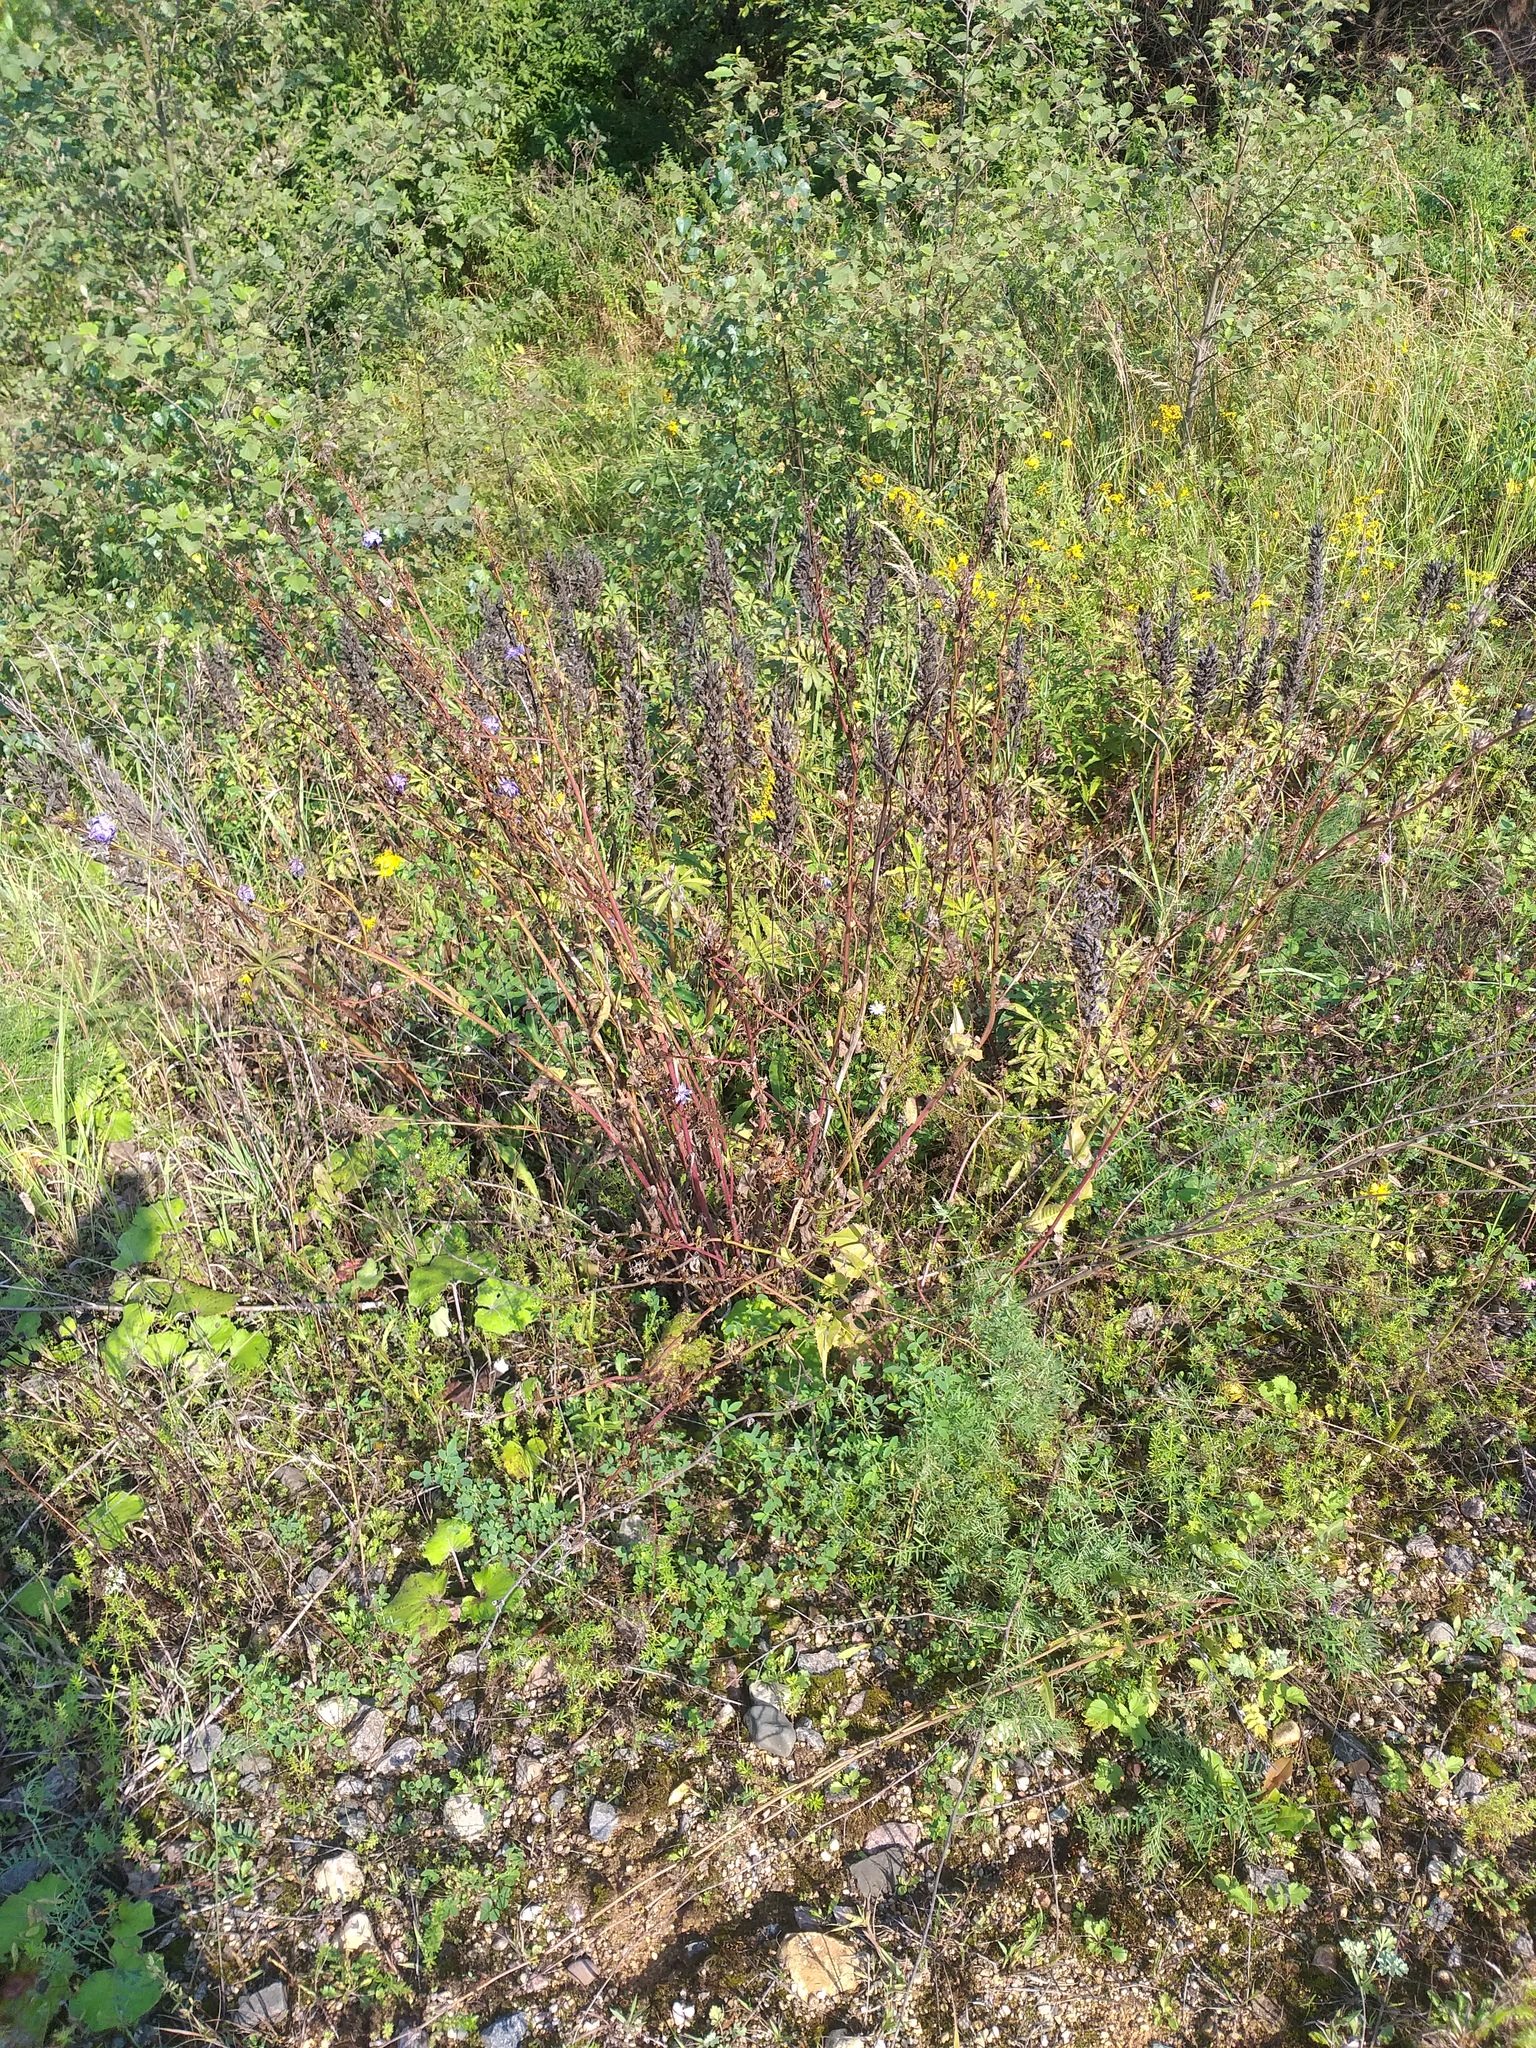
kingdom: Plantae
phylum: Tracheophyta
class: Magnoliopsida
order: Asterales
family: Asteraceae
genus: Cichorium
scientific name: Cichorium intybus
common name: Chicory
